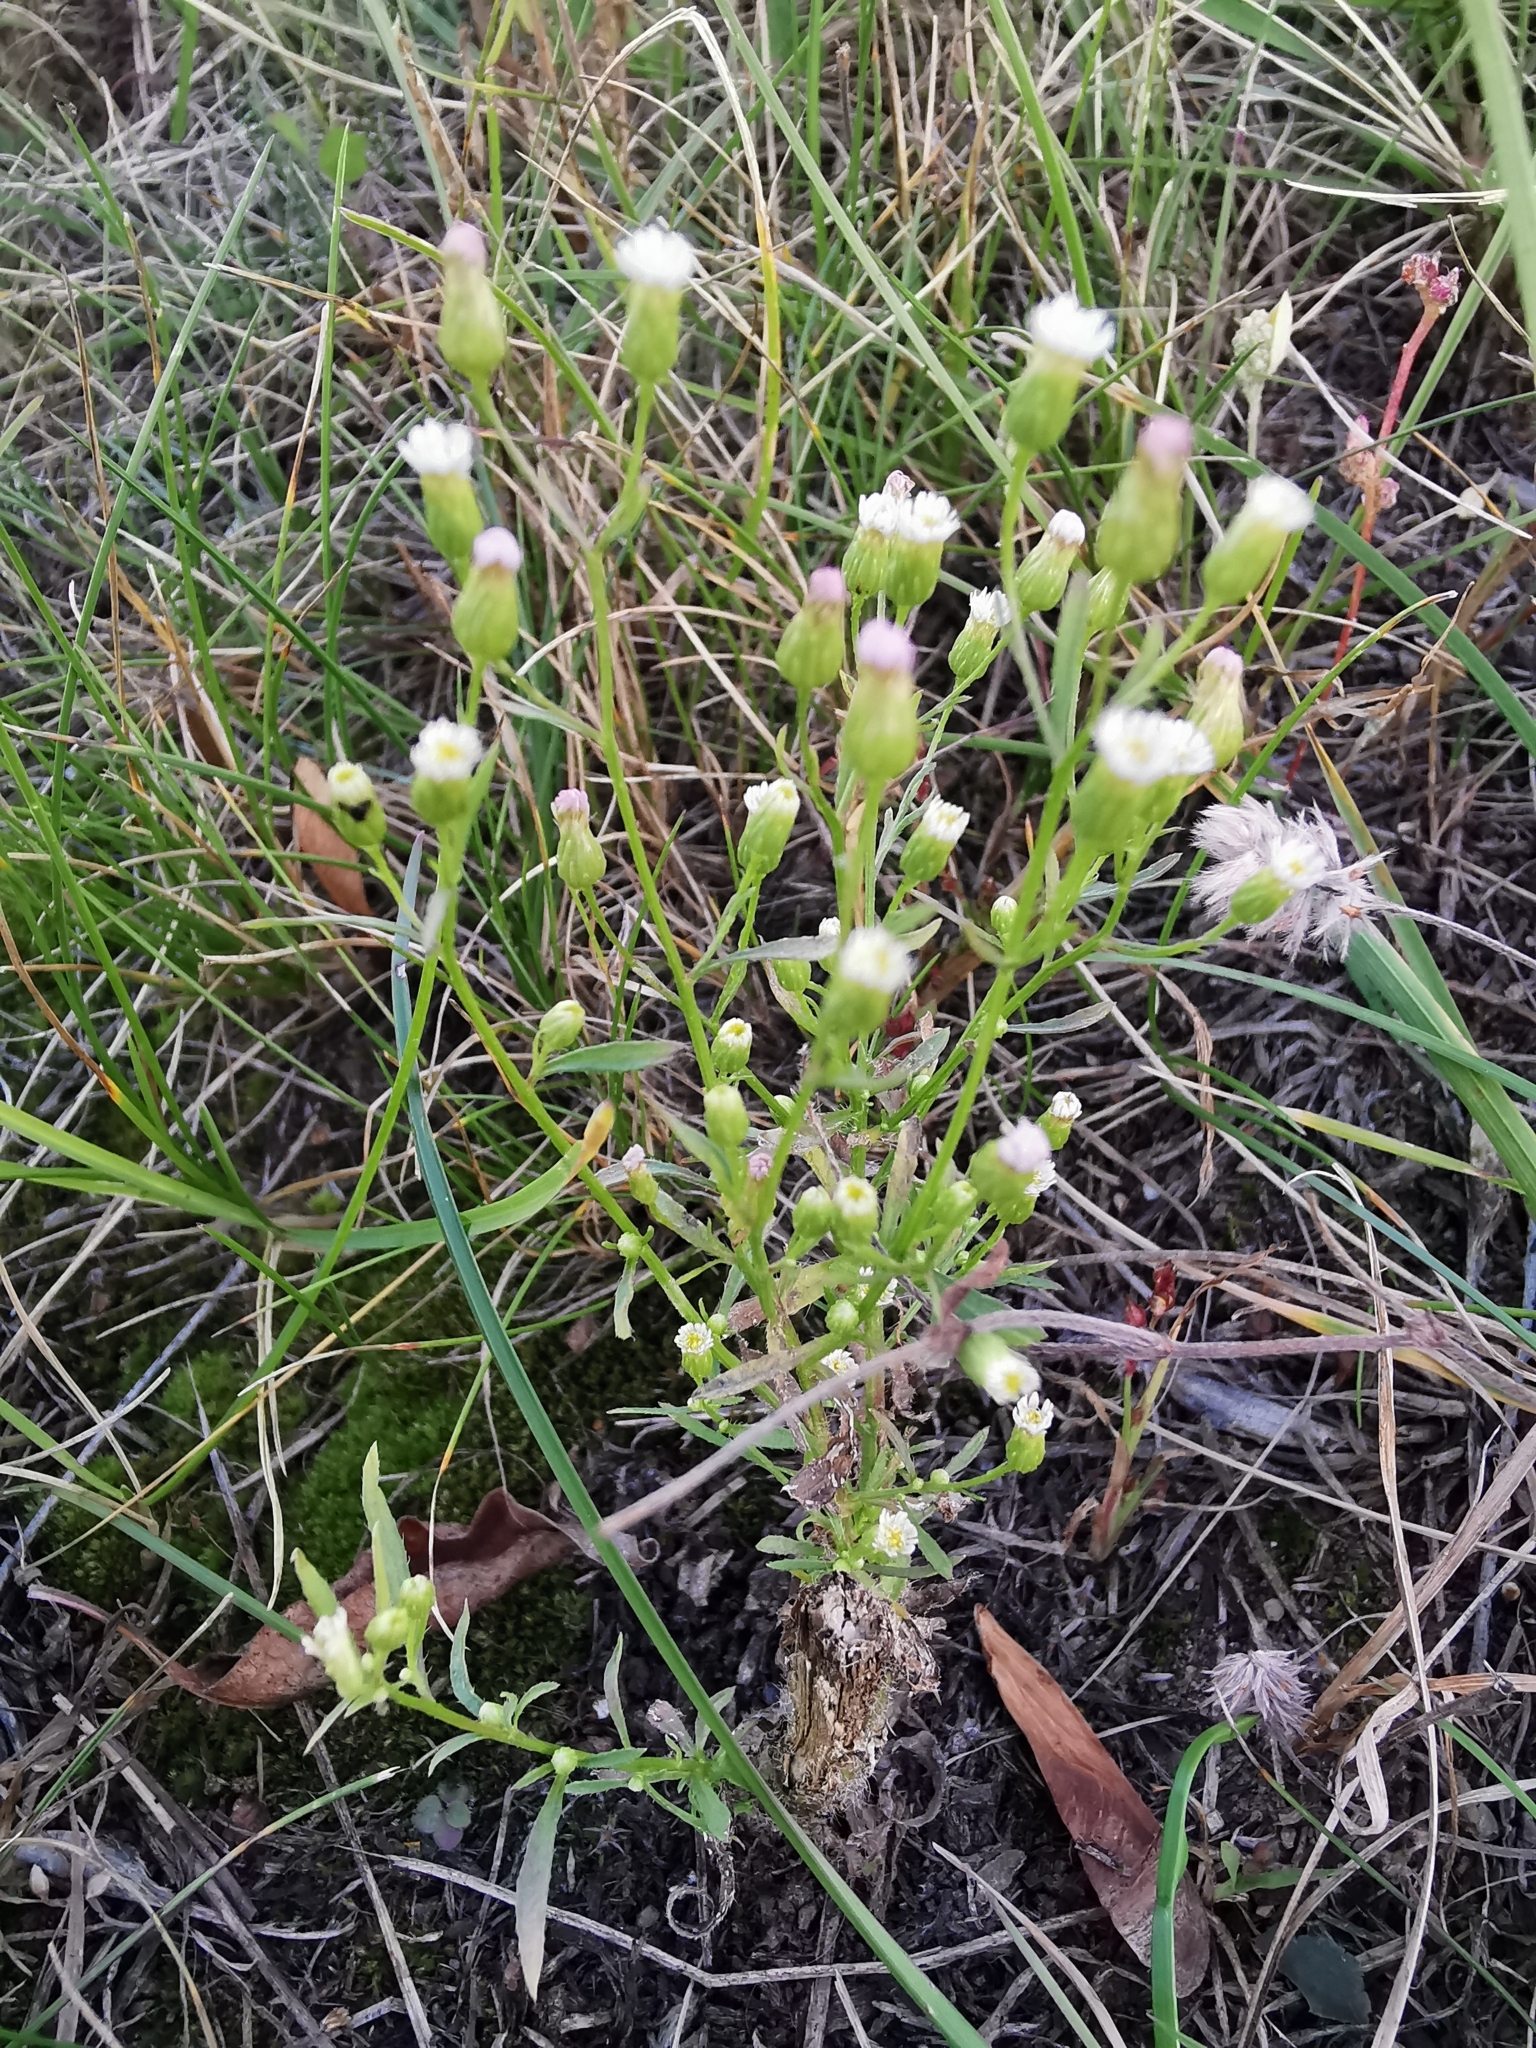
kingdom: Plantae
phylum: Tracheophyta
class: Magnoliopsida
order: Asterales
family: Asteraceae
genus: Erigeron
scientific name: Erigeron canadensis
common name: Canadian fleabane
